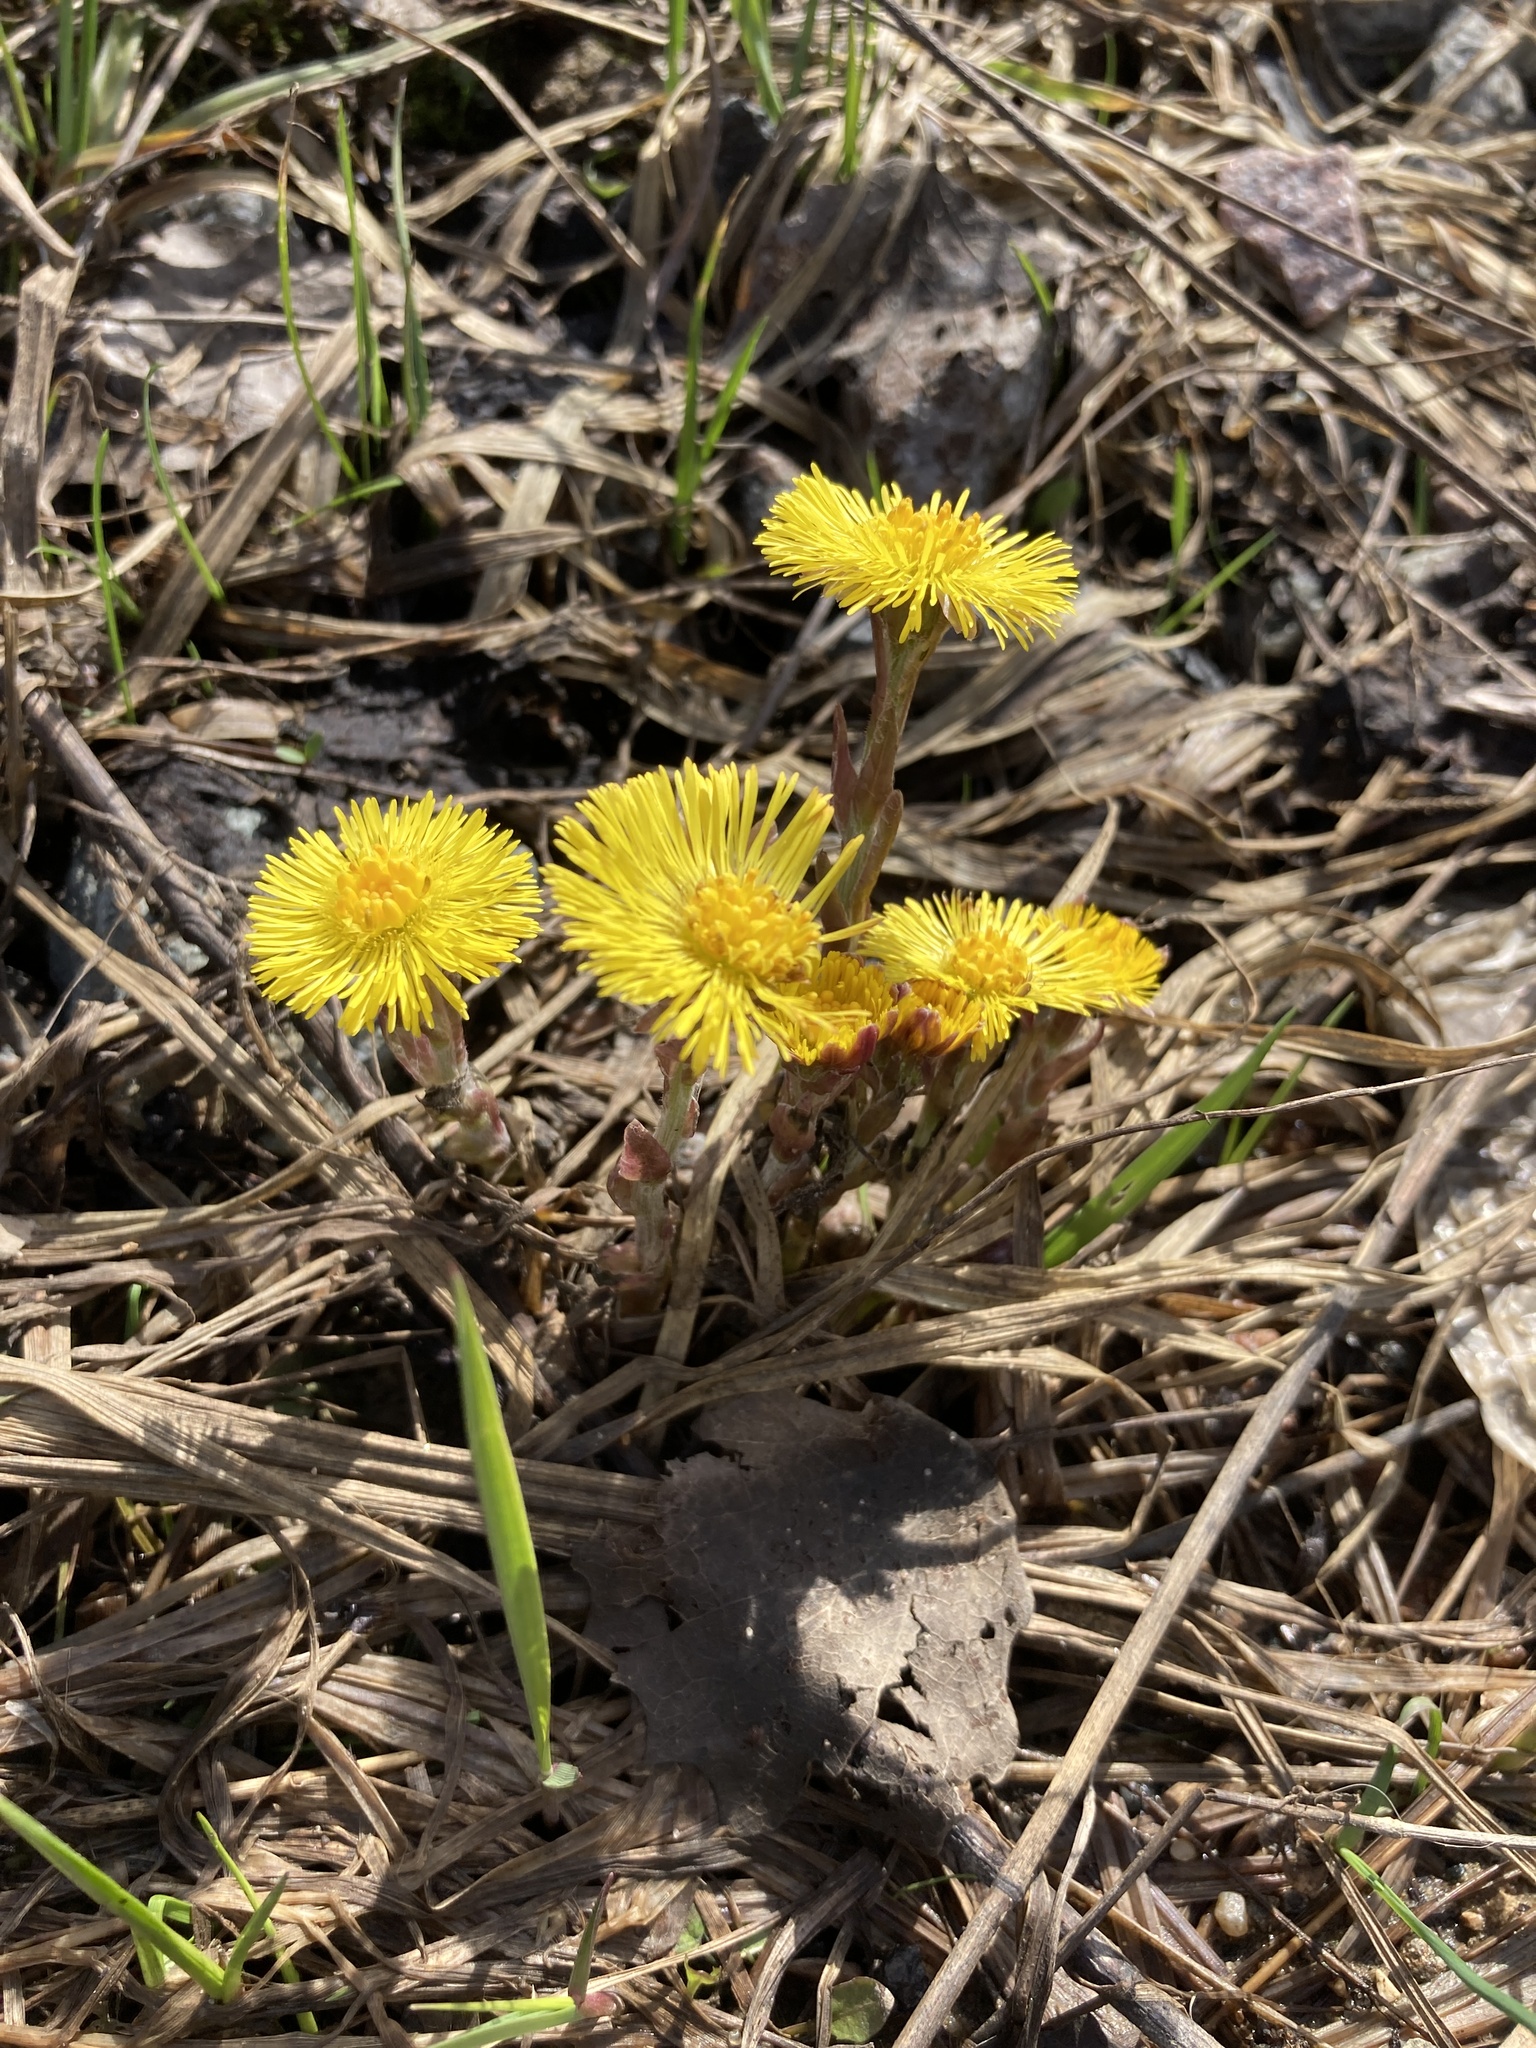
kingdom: Plantae
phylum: Tracheophyta
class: Magnoliopsida
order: Asterales
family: Asteraceae
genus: Tussilago
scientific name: Tussilago farfara
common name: Coltsfoot
